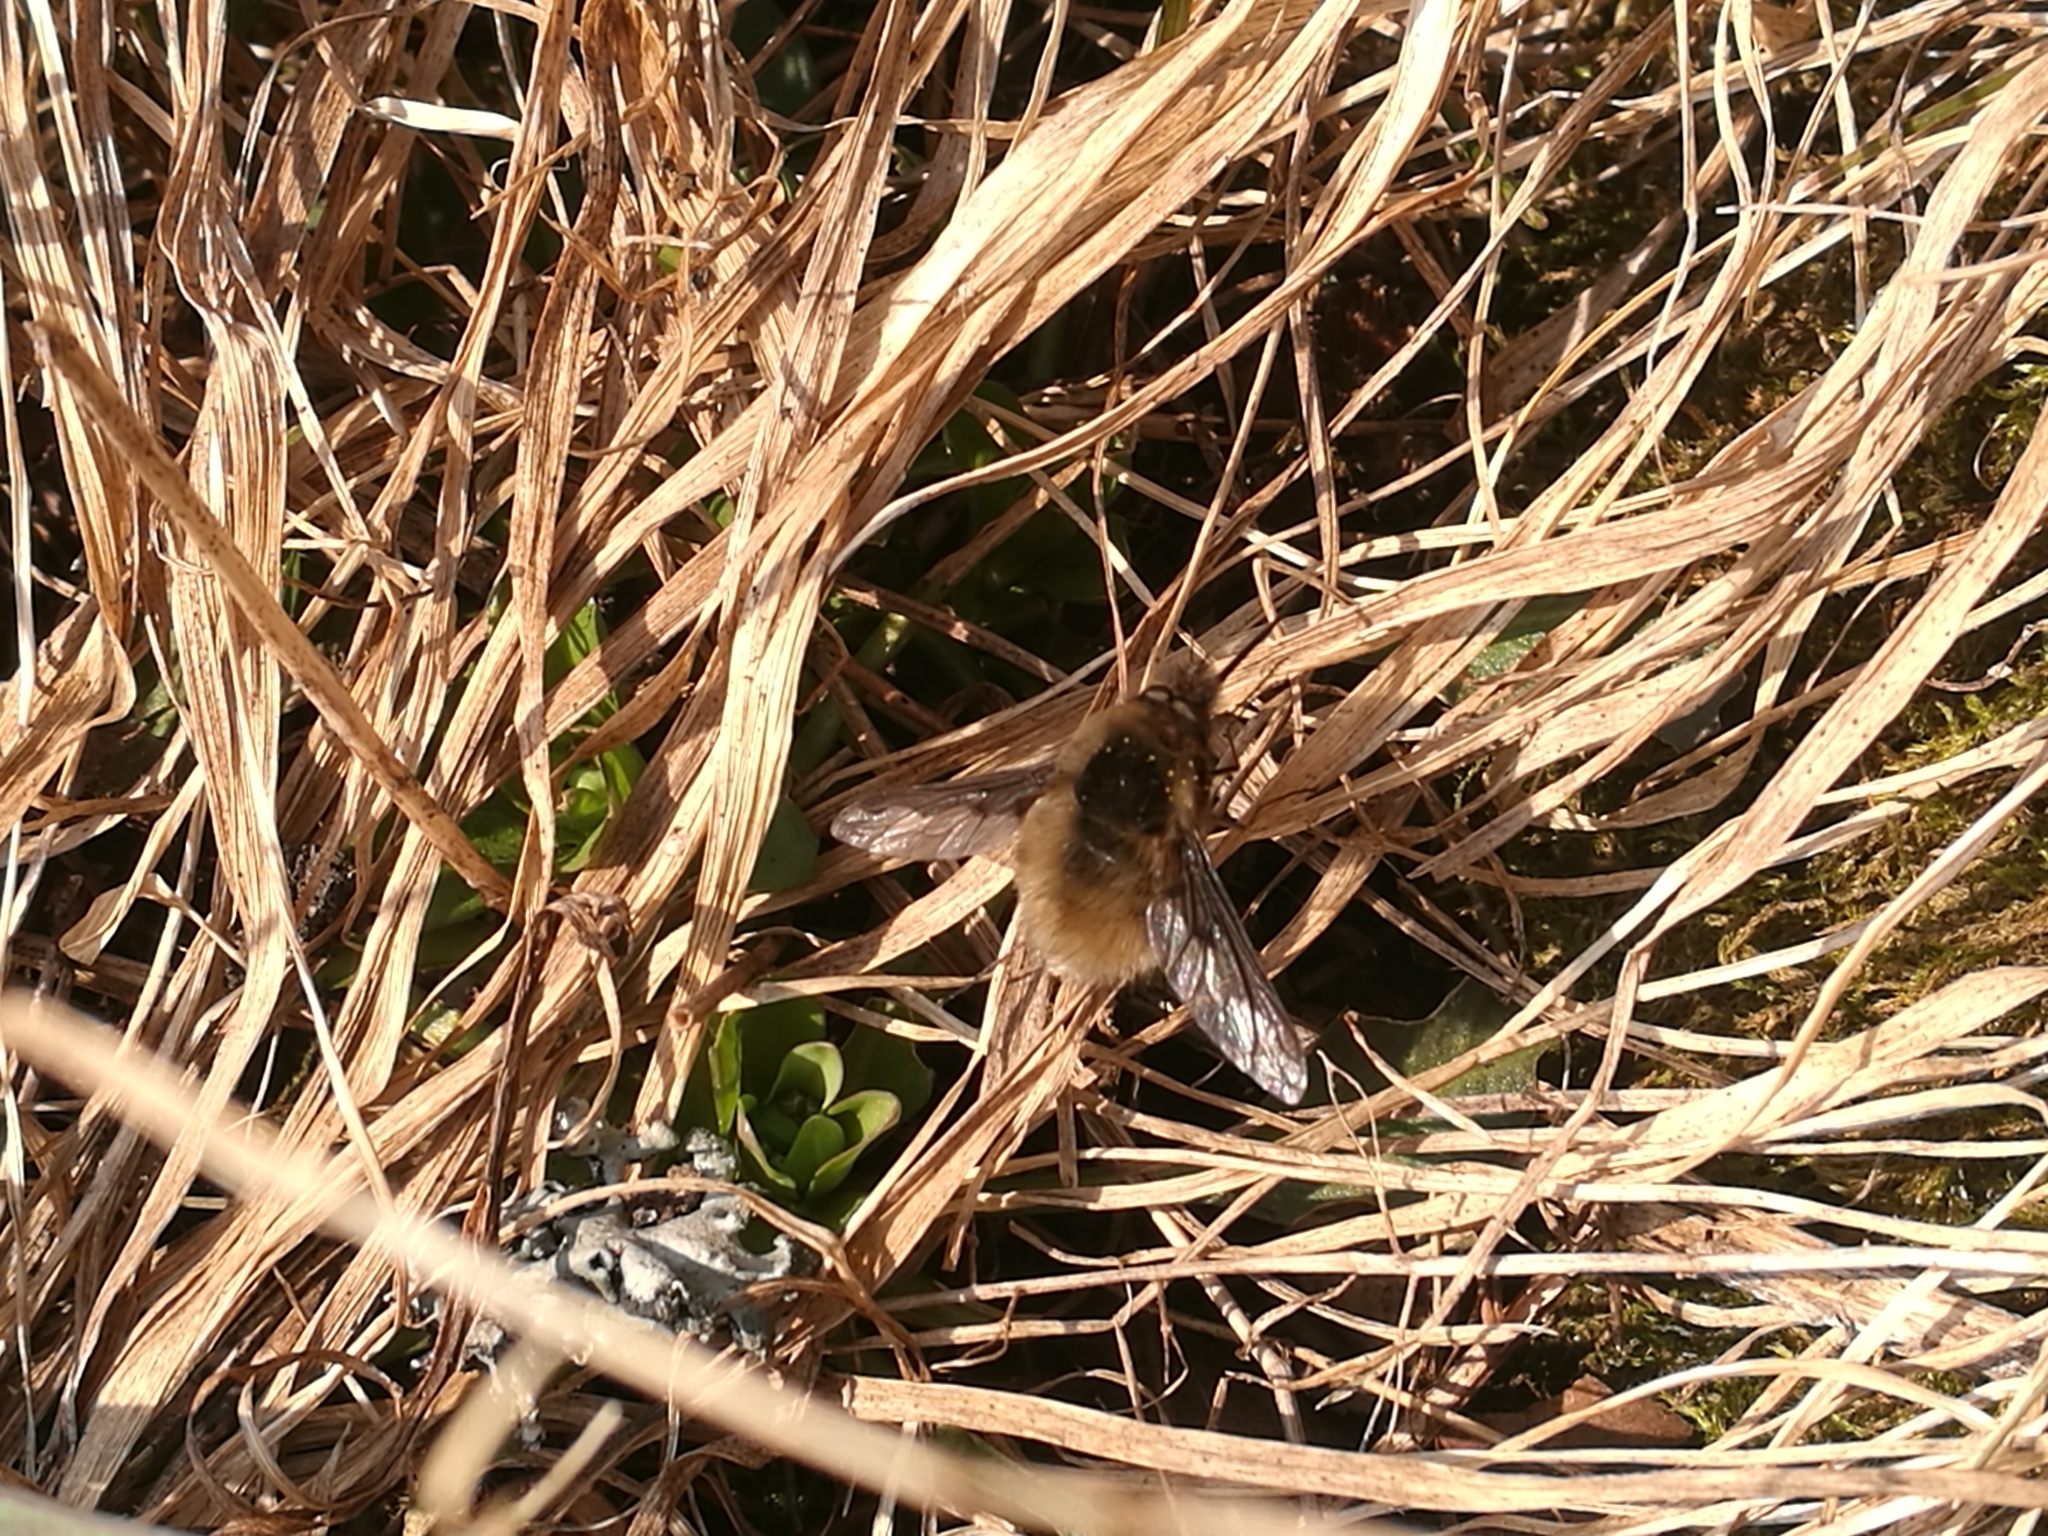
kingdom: Animalia
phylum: Arthropoda
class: Insecta
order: Diptera
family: Bombyliidae
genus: Bombylius
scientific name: Bombylius major
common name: Bee fly
